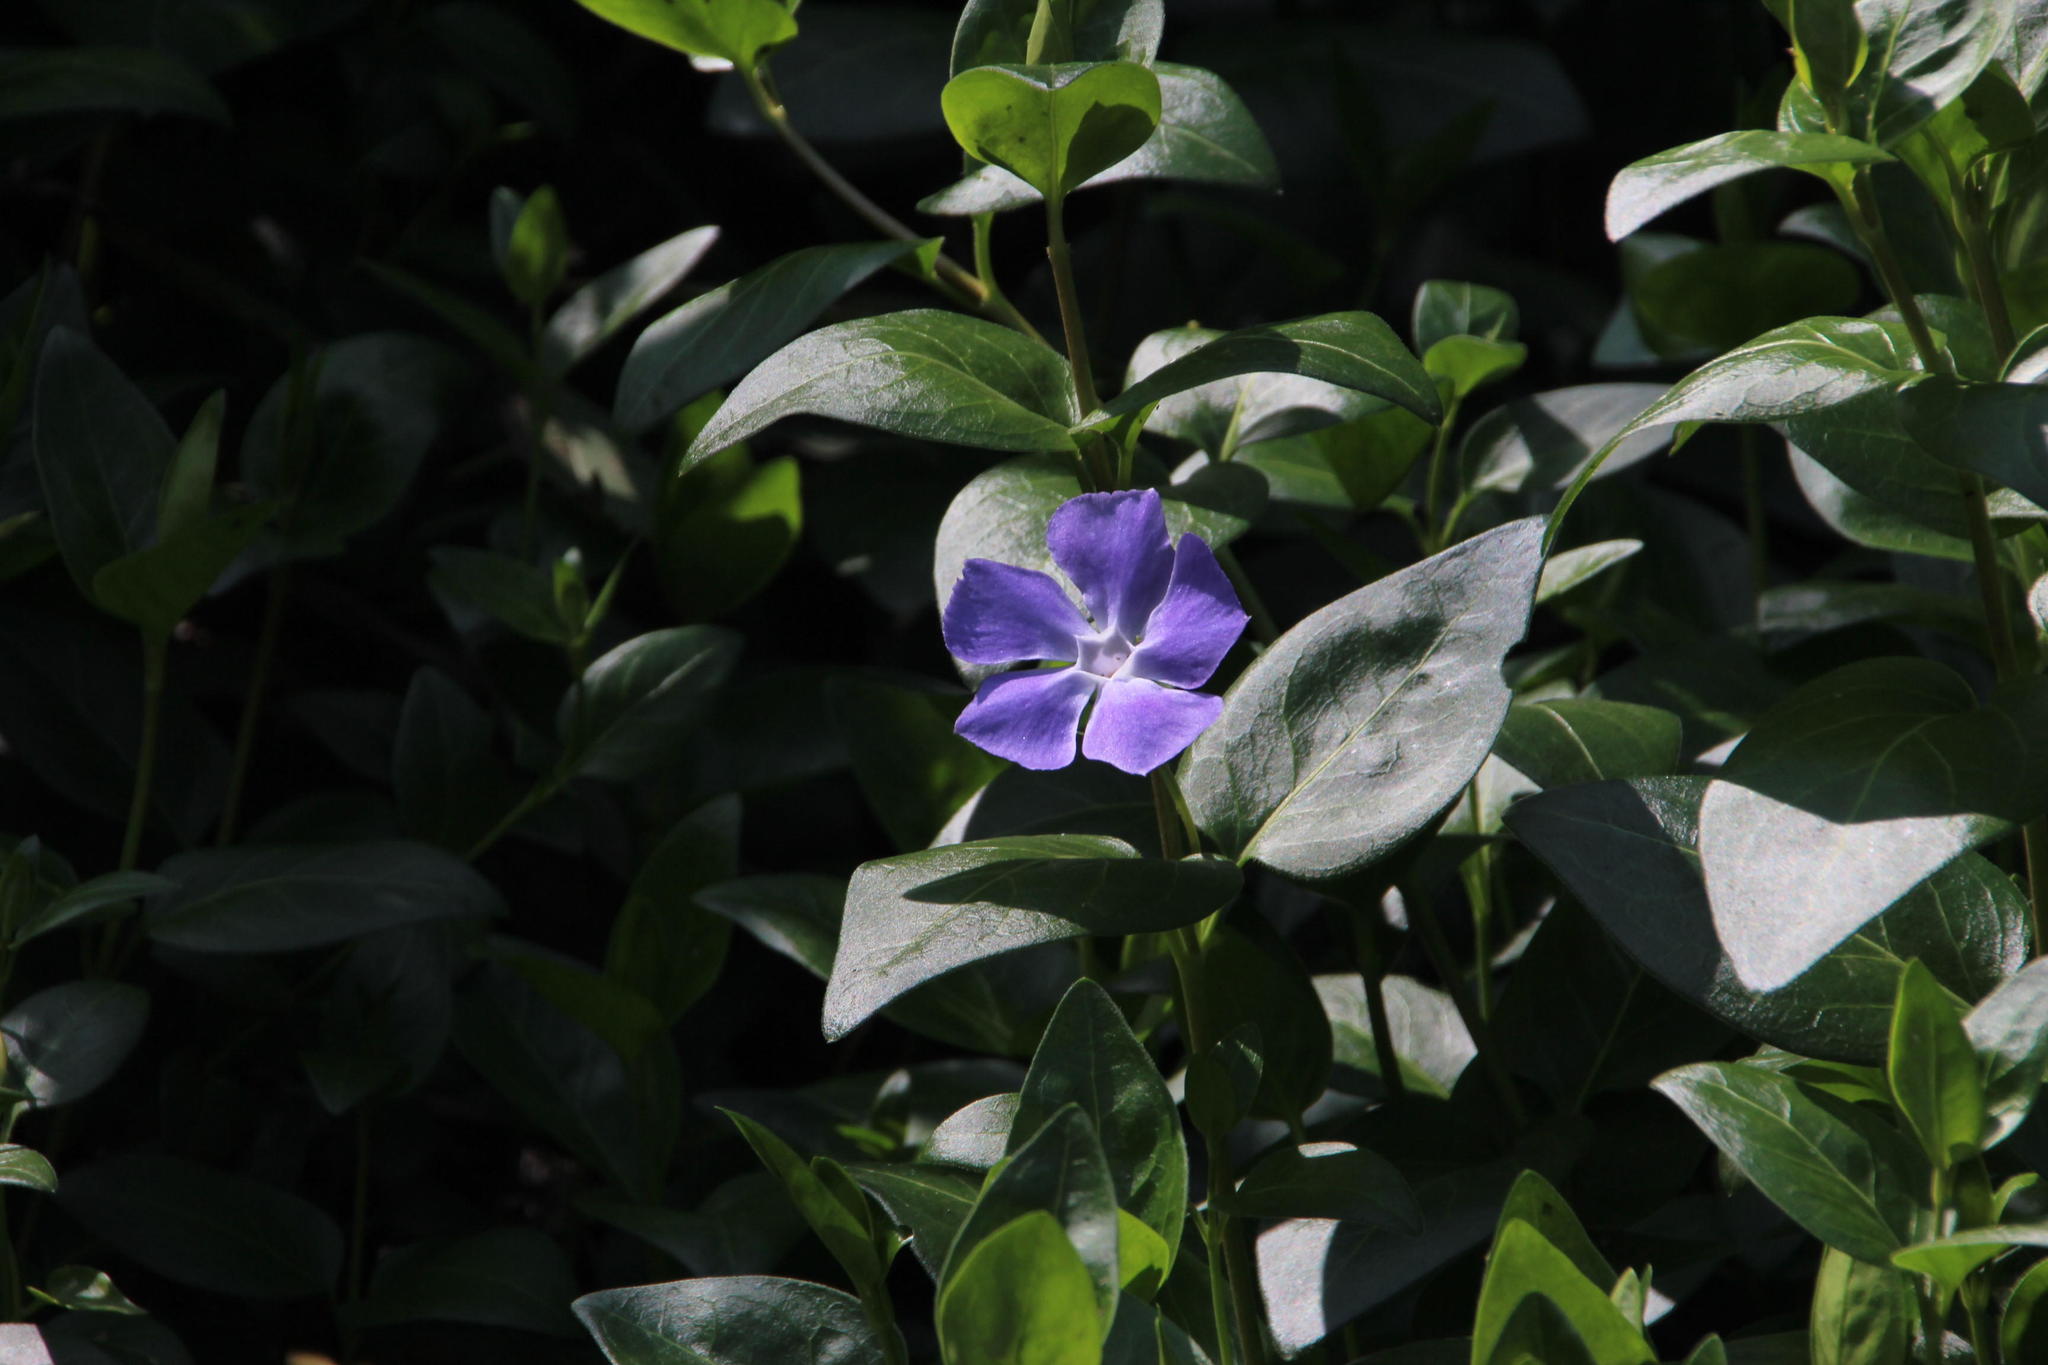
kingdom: Plantae
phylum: Tracheophyta
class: Magnoliopsida
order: Gentianales
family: Apocynaceae
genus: Vinca
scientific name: Vinca major
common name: Greater periwinkle
